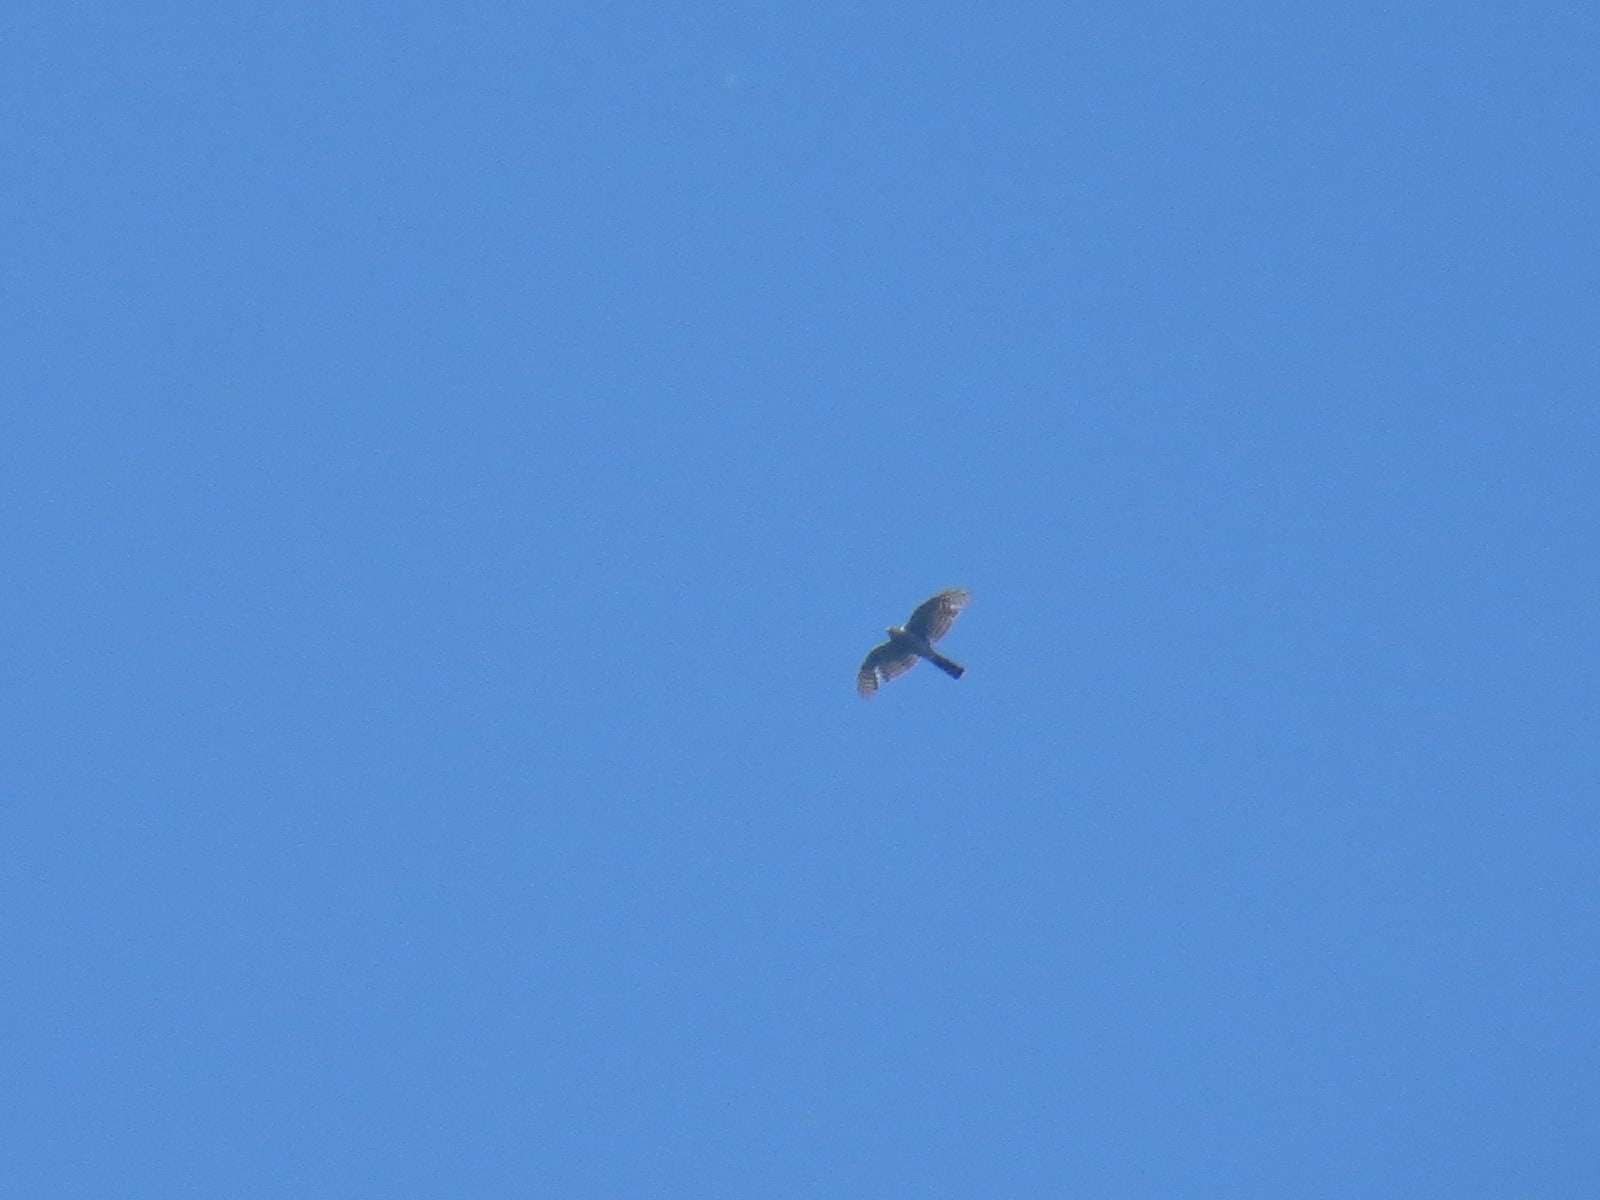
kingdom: Animalia
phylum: Chordata
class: Aves
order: Accipitriformes
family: Accipitridae
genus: Accipiter
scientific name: Accipiter nisus
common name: Eurasian sparrowhawk
